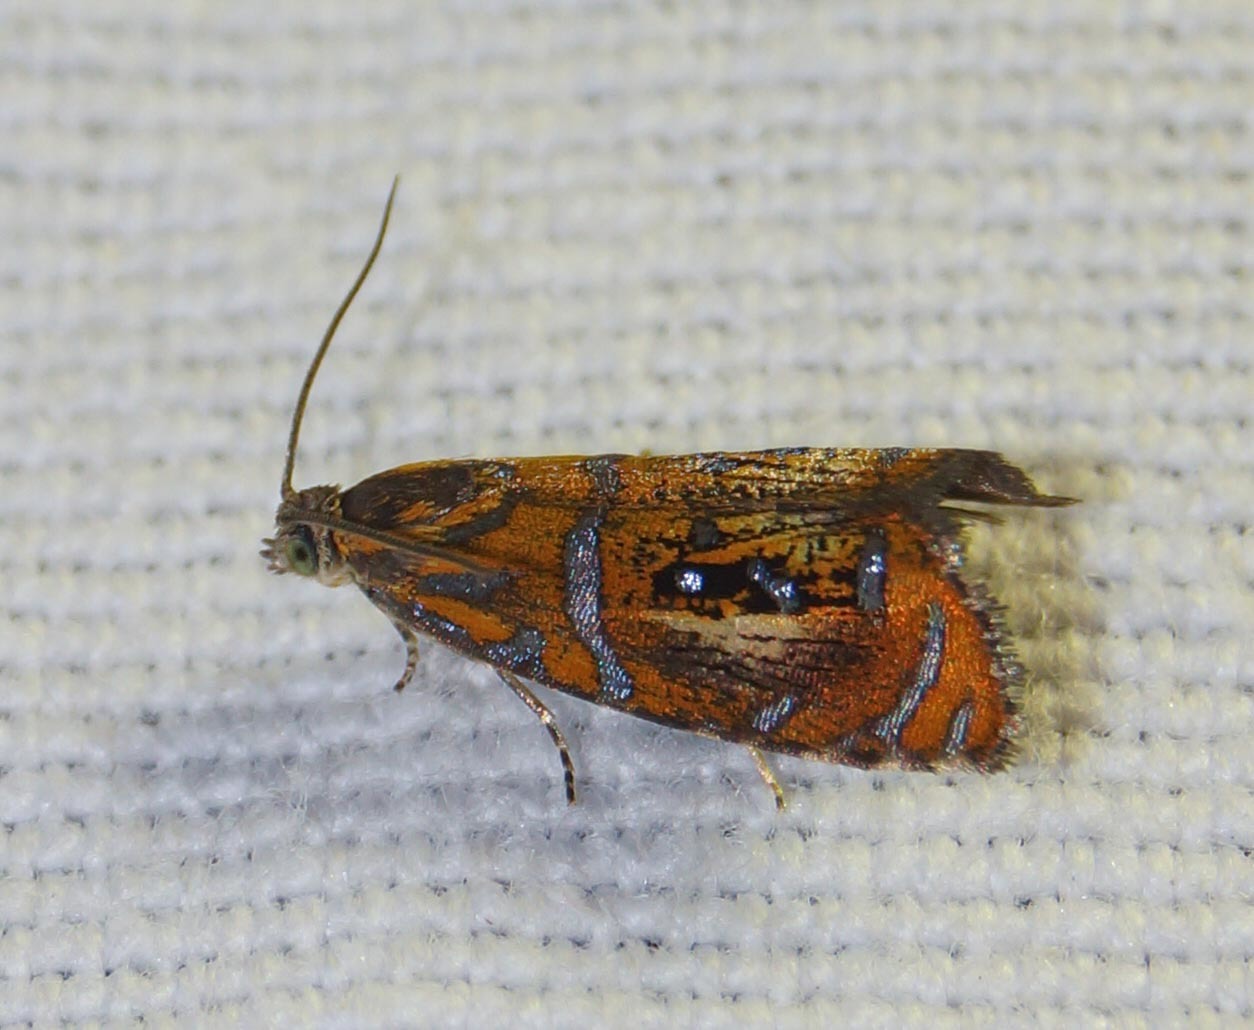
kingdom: Animalia
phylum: Arthropoda
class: Insecta
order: Lepidoptera
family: Tortricidae
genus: Olethreutes
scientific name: Olethreutes arcuella
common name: Arched marble
